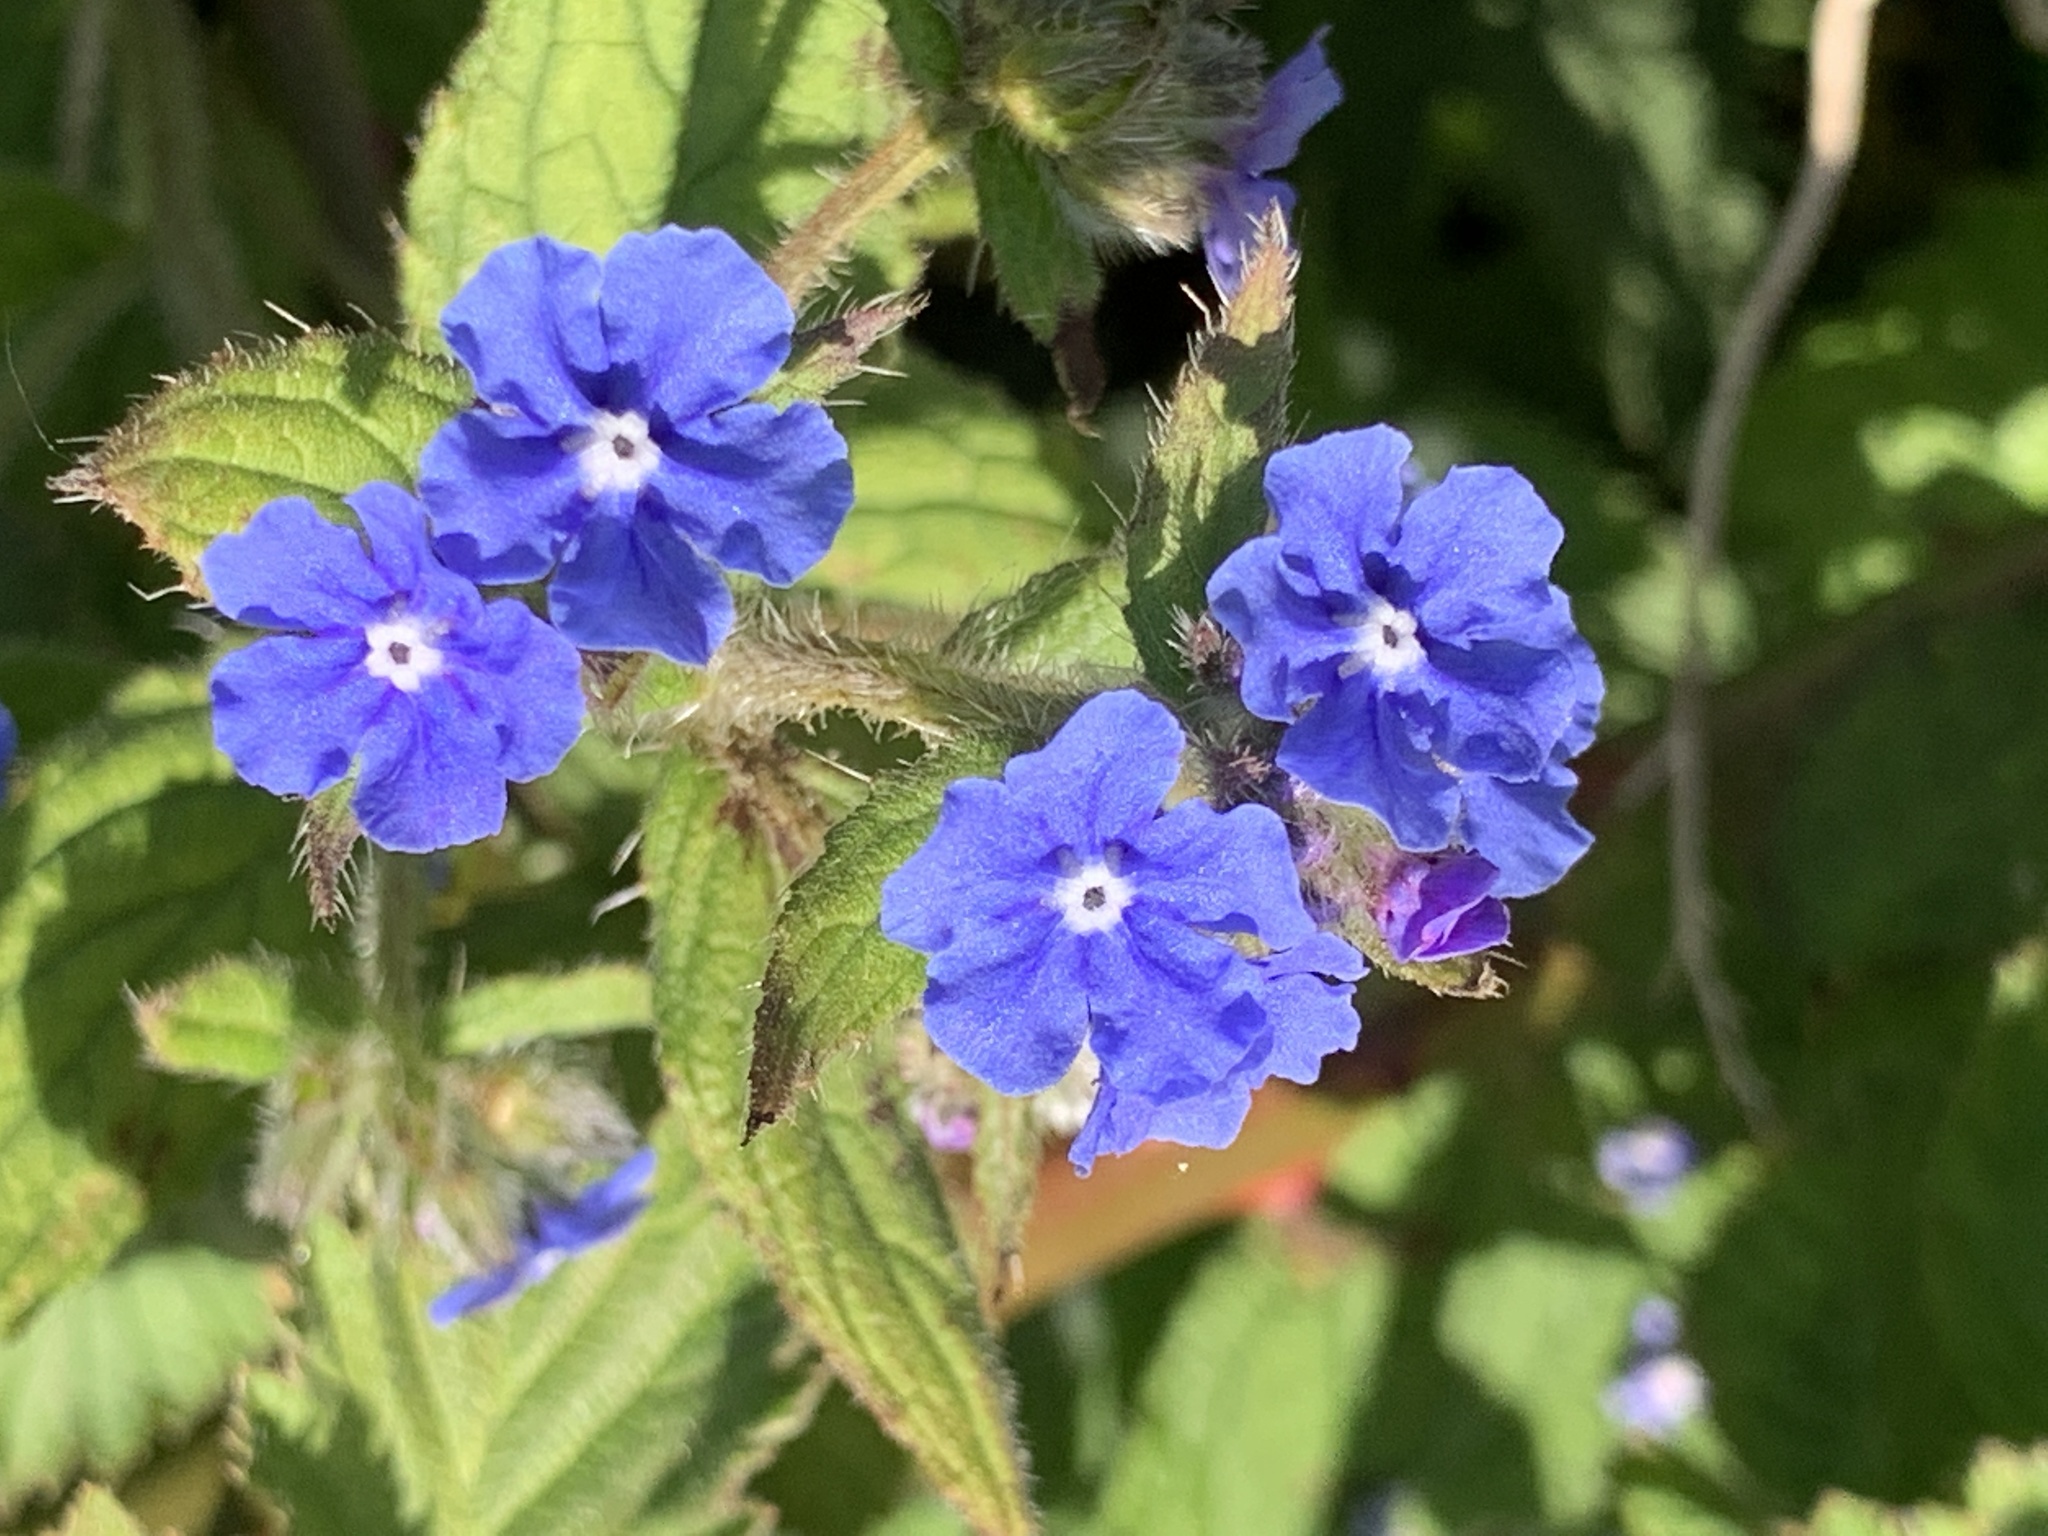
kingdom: Plantae
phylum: Tracheophyta
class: Magnoliopsida
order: Boraginales
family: Boraginaceae
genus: Pentaglottis
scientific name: Pentaglottis sempervirens
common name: Green alkanet
